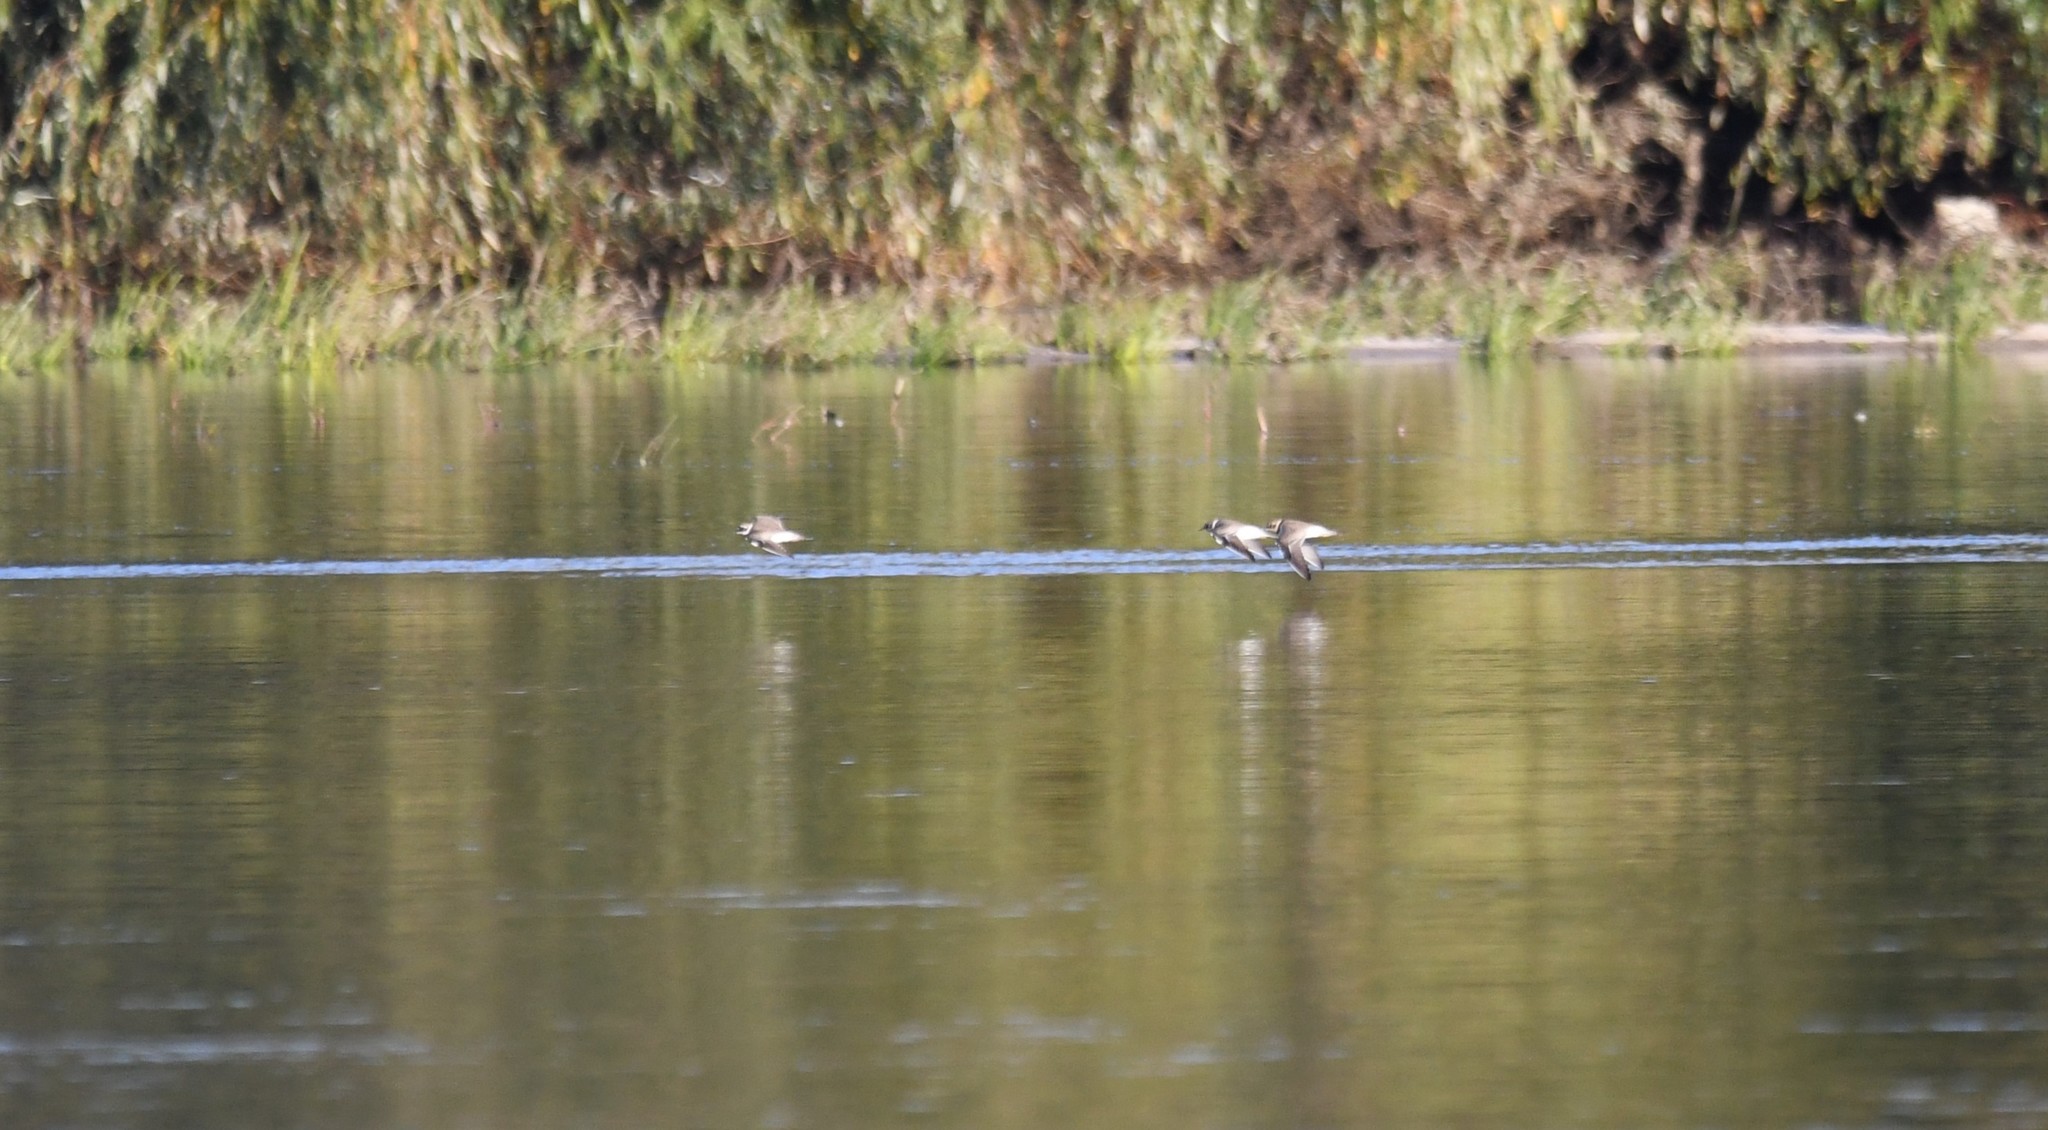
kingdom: Animalia
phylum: Chordata
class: Aves
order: Charadriiformes
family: Charadriidae
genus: Charadrius
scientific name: Charadrius hiaticula
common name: Common ringed plover
